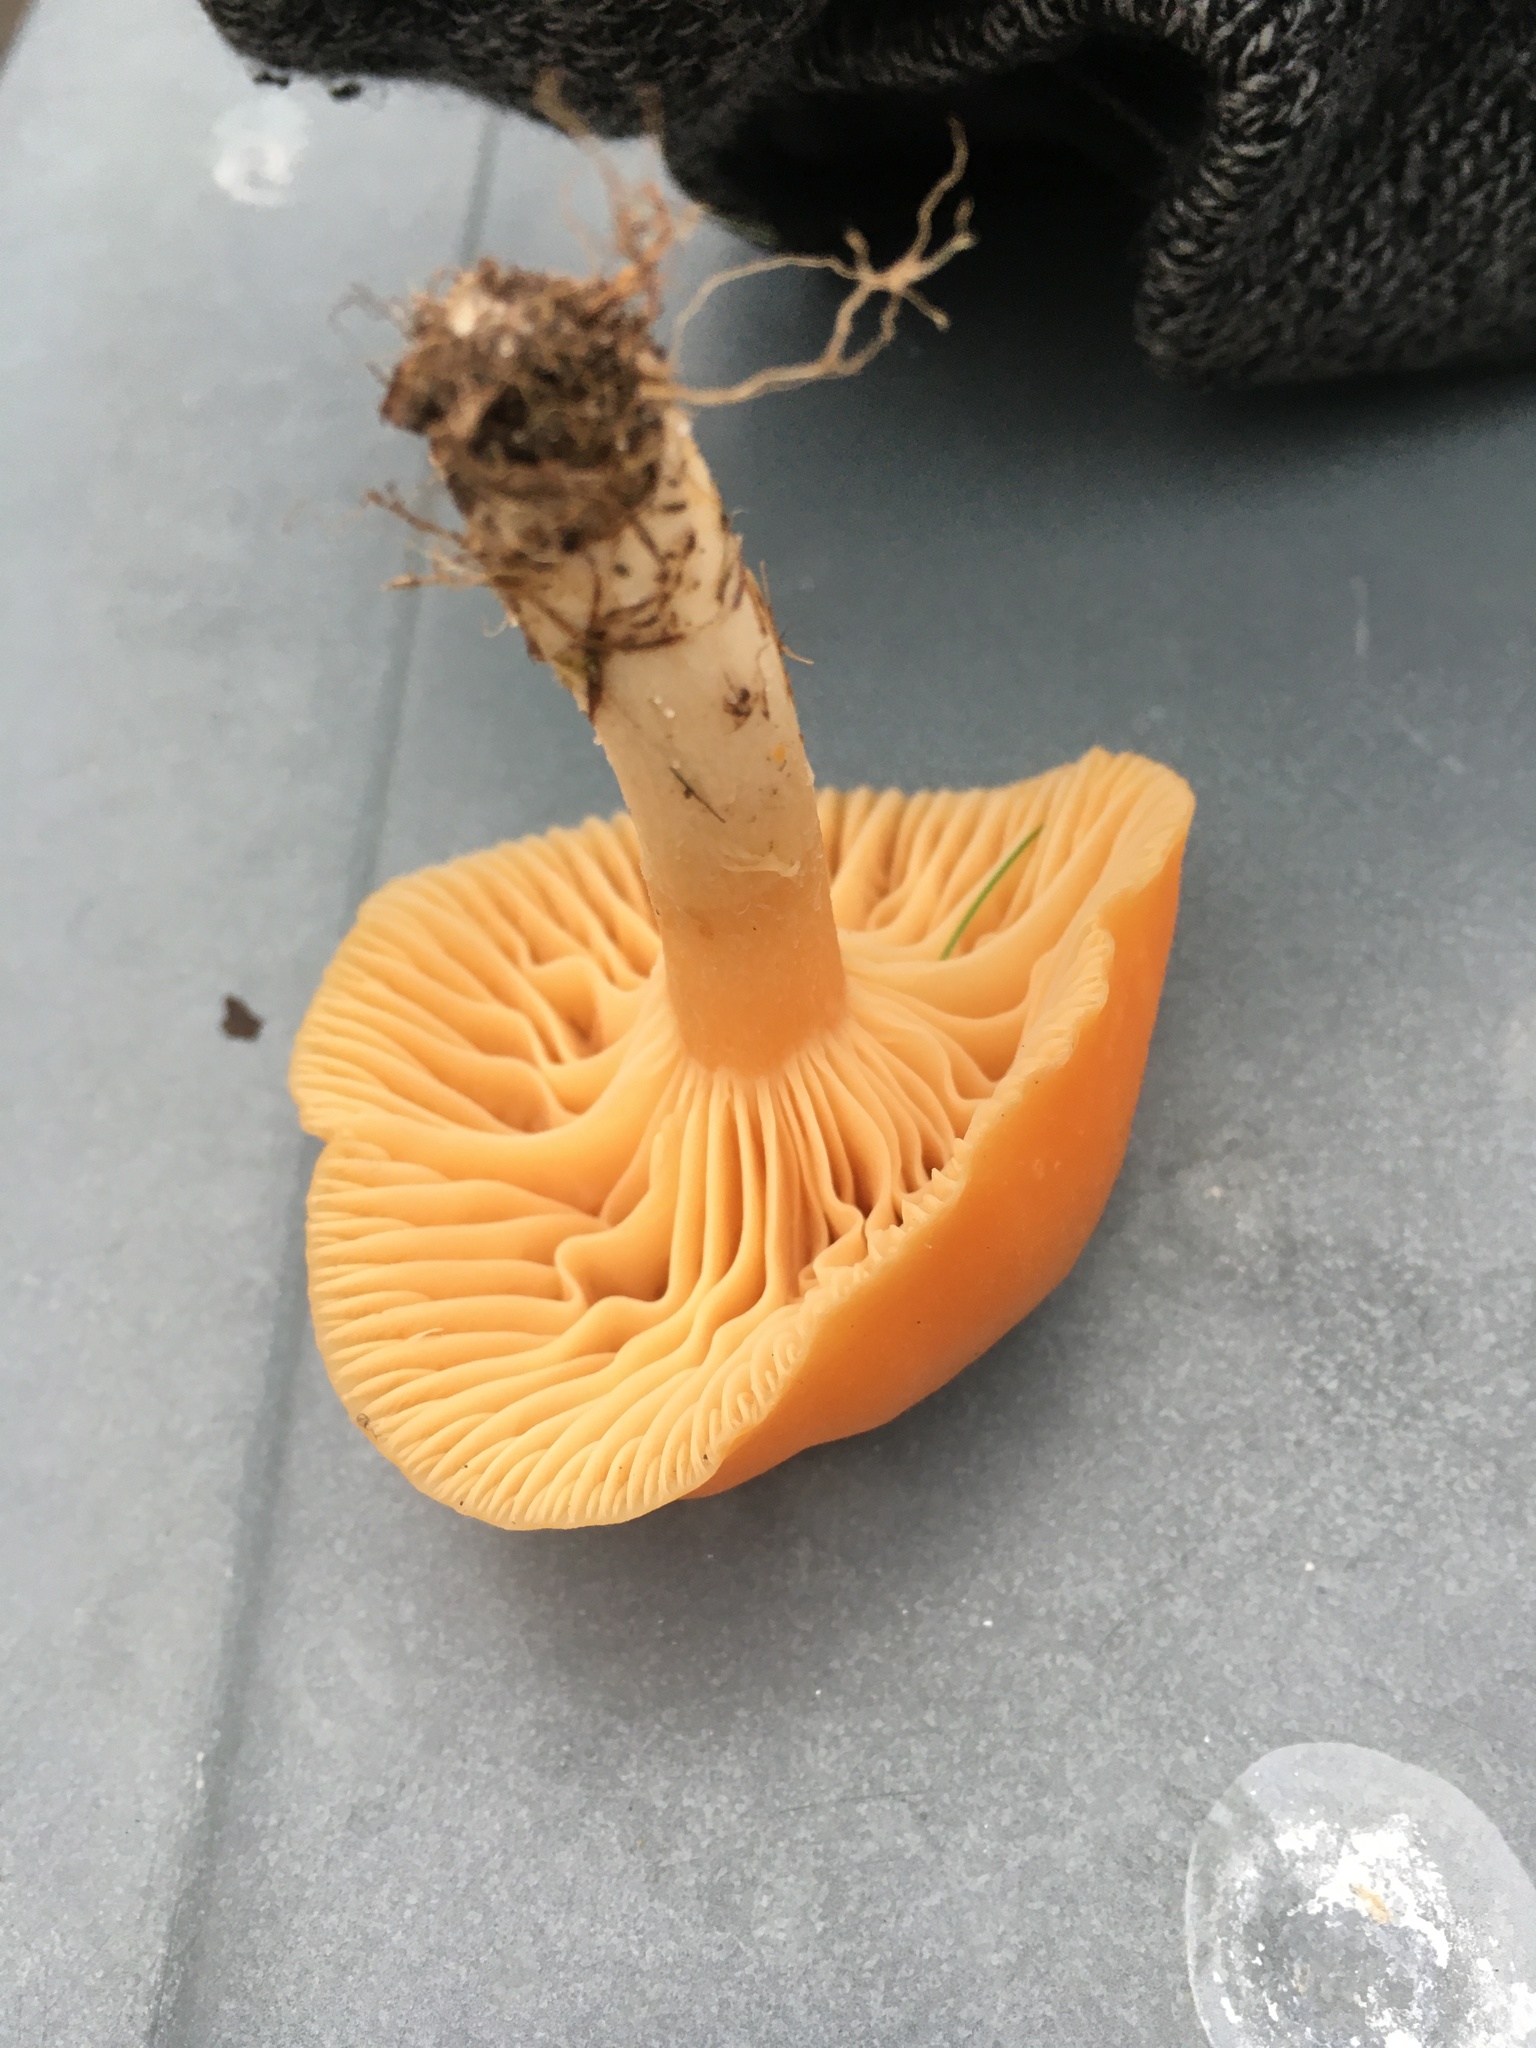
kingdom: Fungi
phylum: Basidiomycota
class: Agaricomycetes
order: Agaricales
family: Hygrophoraceae
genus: Cuphophyllus
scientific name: Cuphophyllus pratensis
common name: Meadow waxcap
